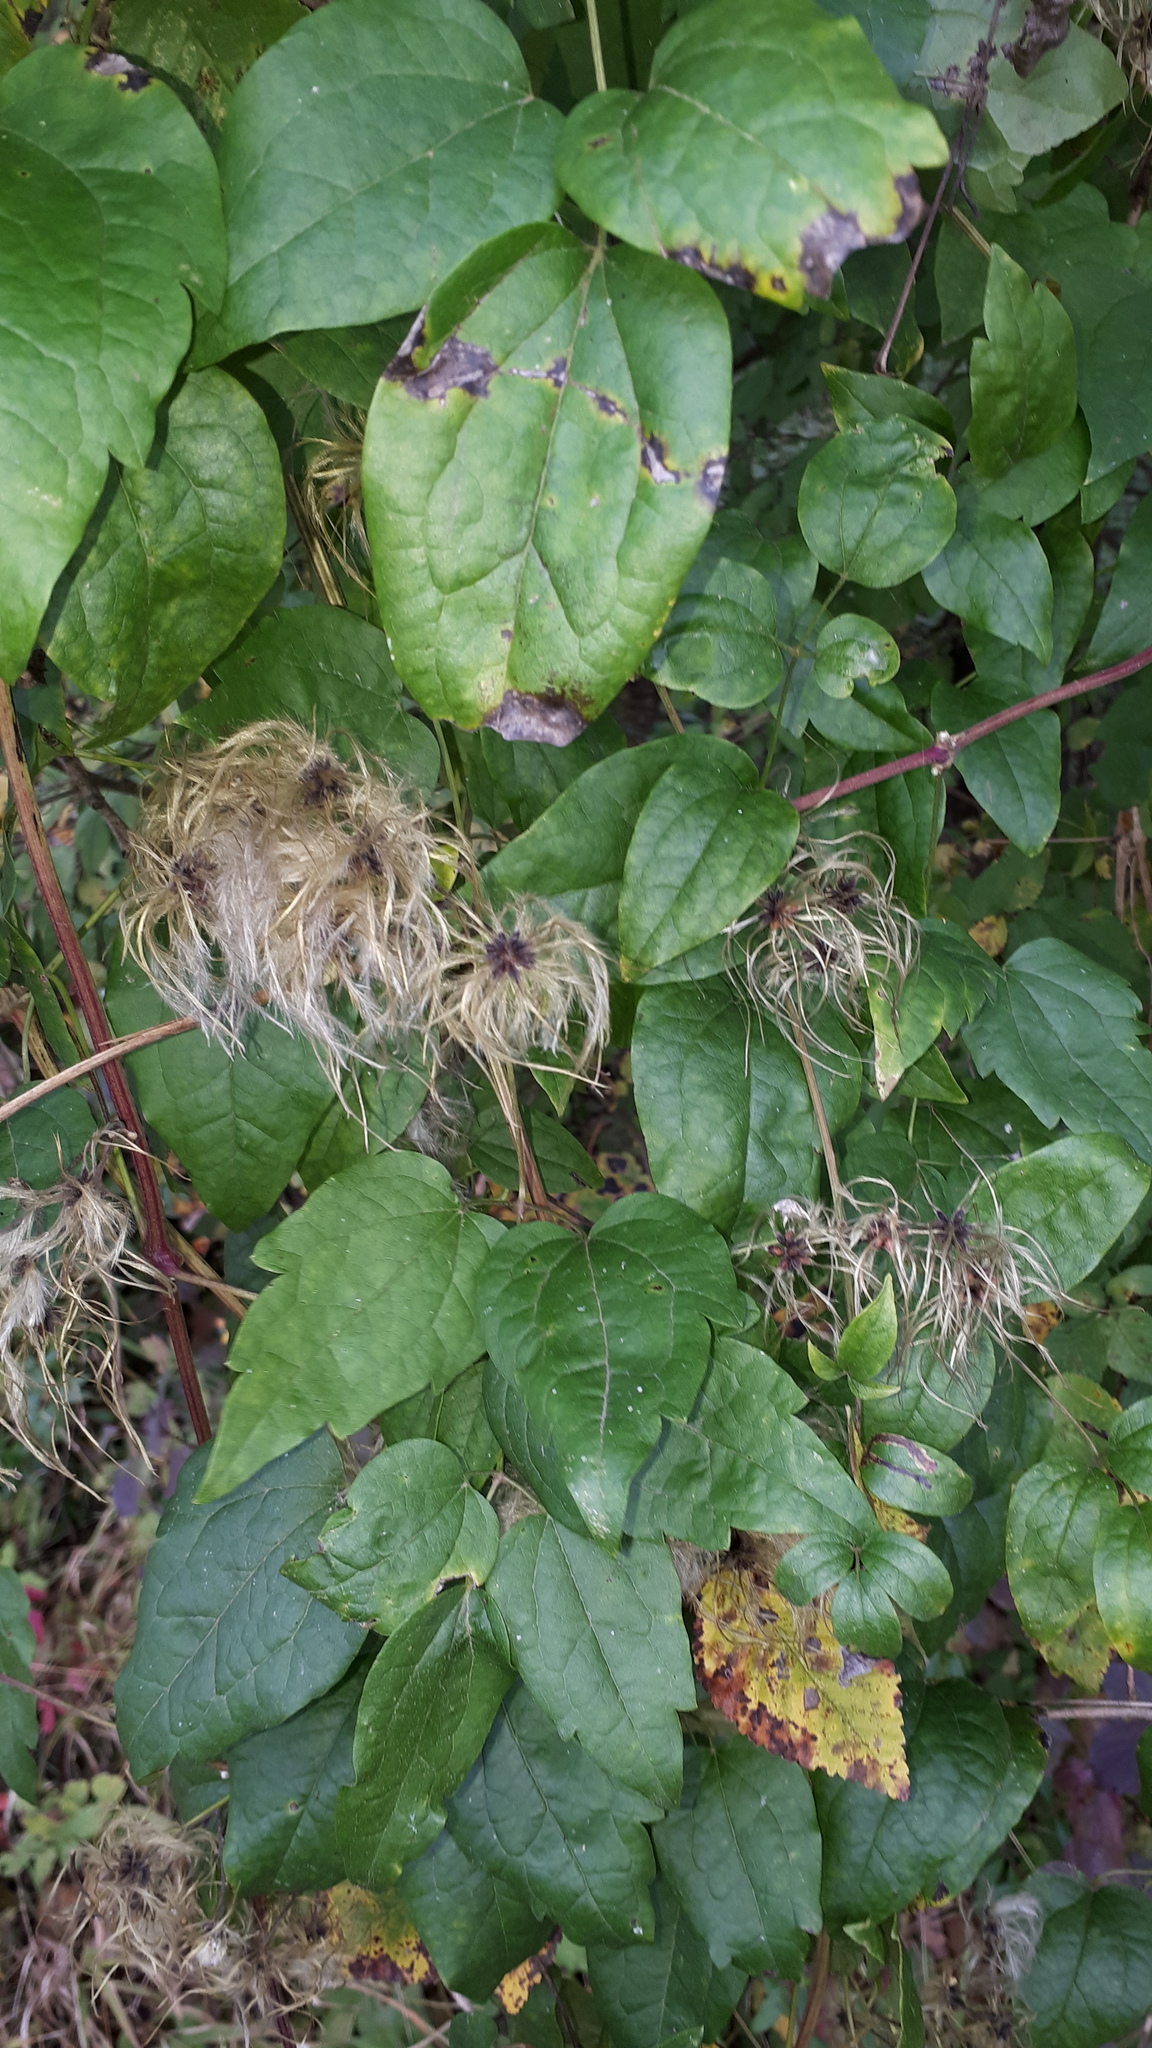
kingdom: Plantae
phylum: Tracheophyta
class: Magnoliopsida
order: Ranunculales
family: Ranunculaceae
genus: Clematis
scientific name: Clematis vitalba
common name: Evergreen clematis
